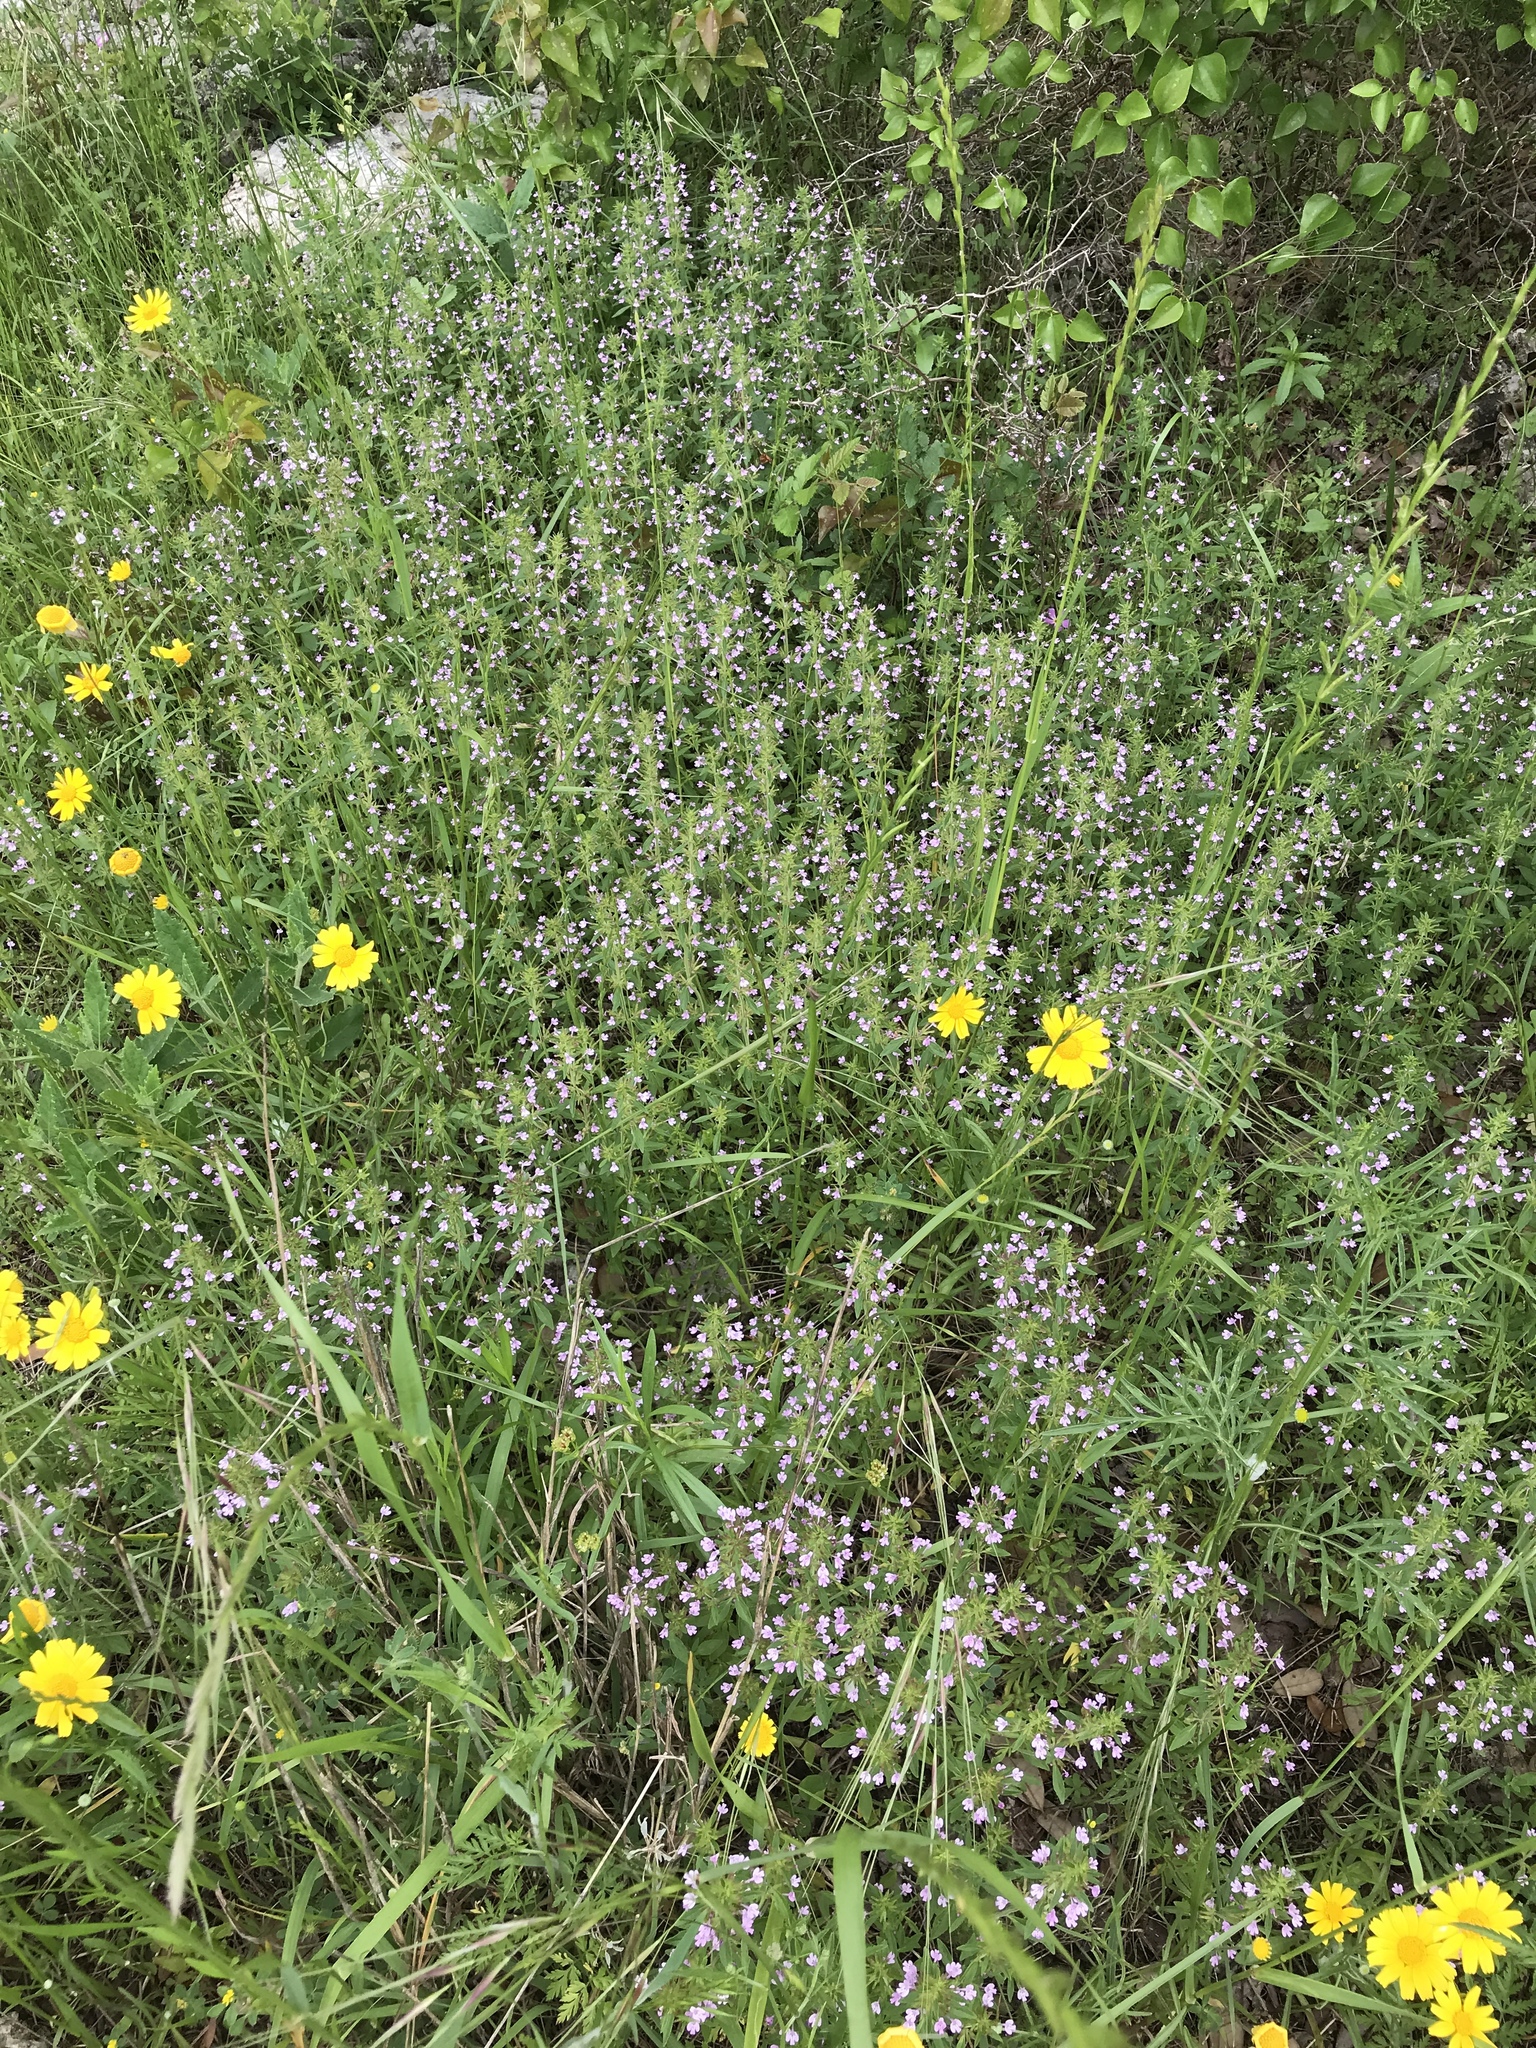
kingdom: Plantae
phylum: Tracheophyta
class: Magnoliopsida
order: Lamiales
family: Lamiaceae
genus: Hedeoma
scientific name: Hedeoma acinoides
